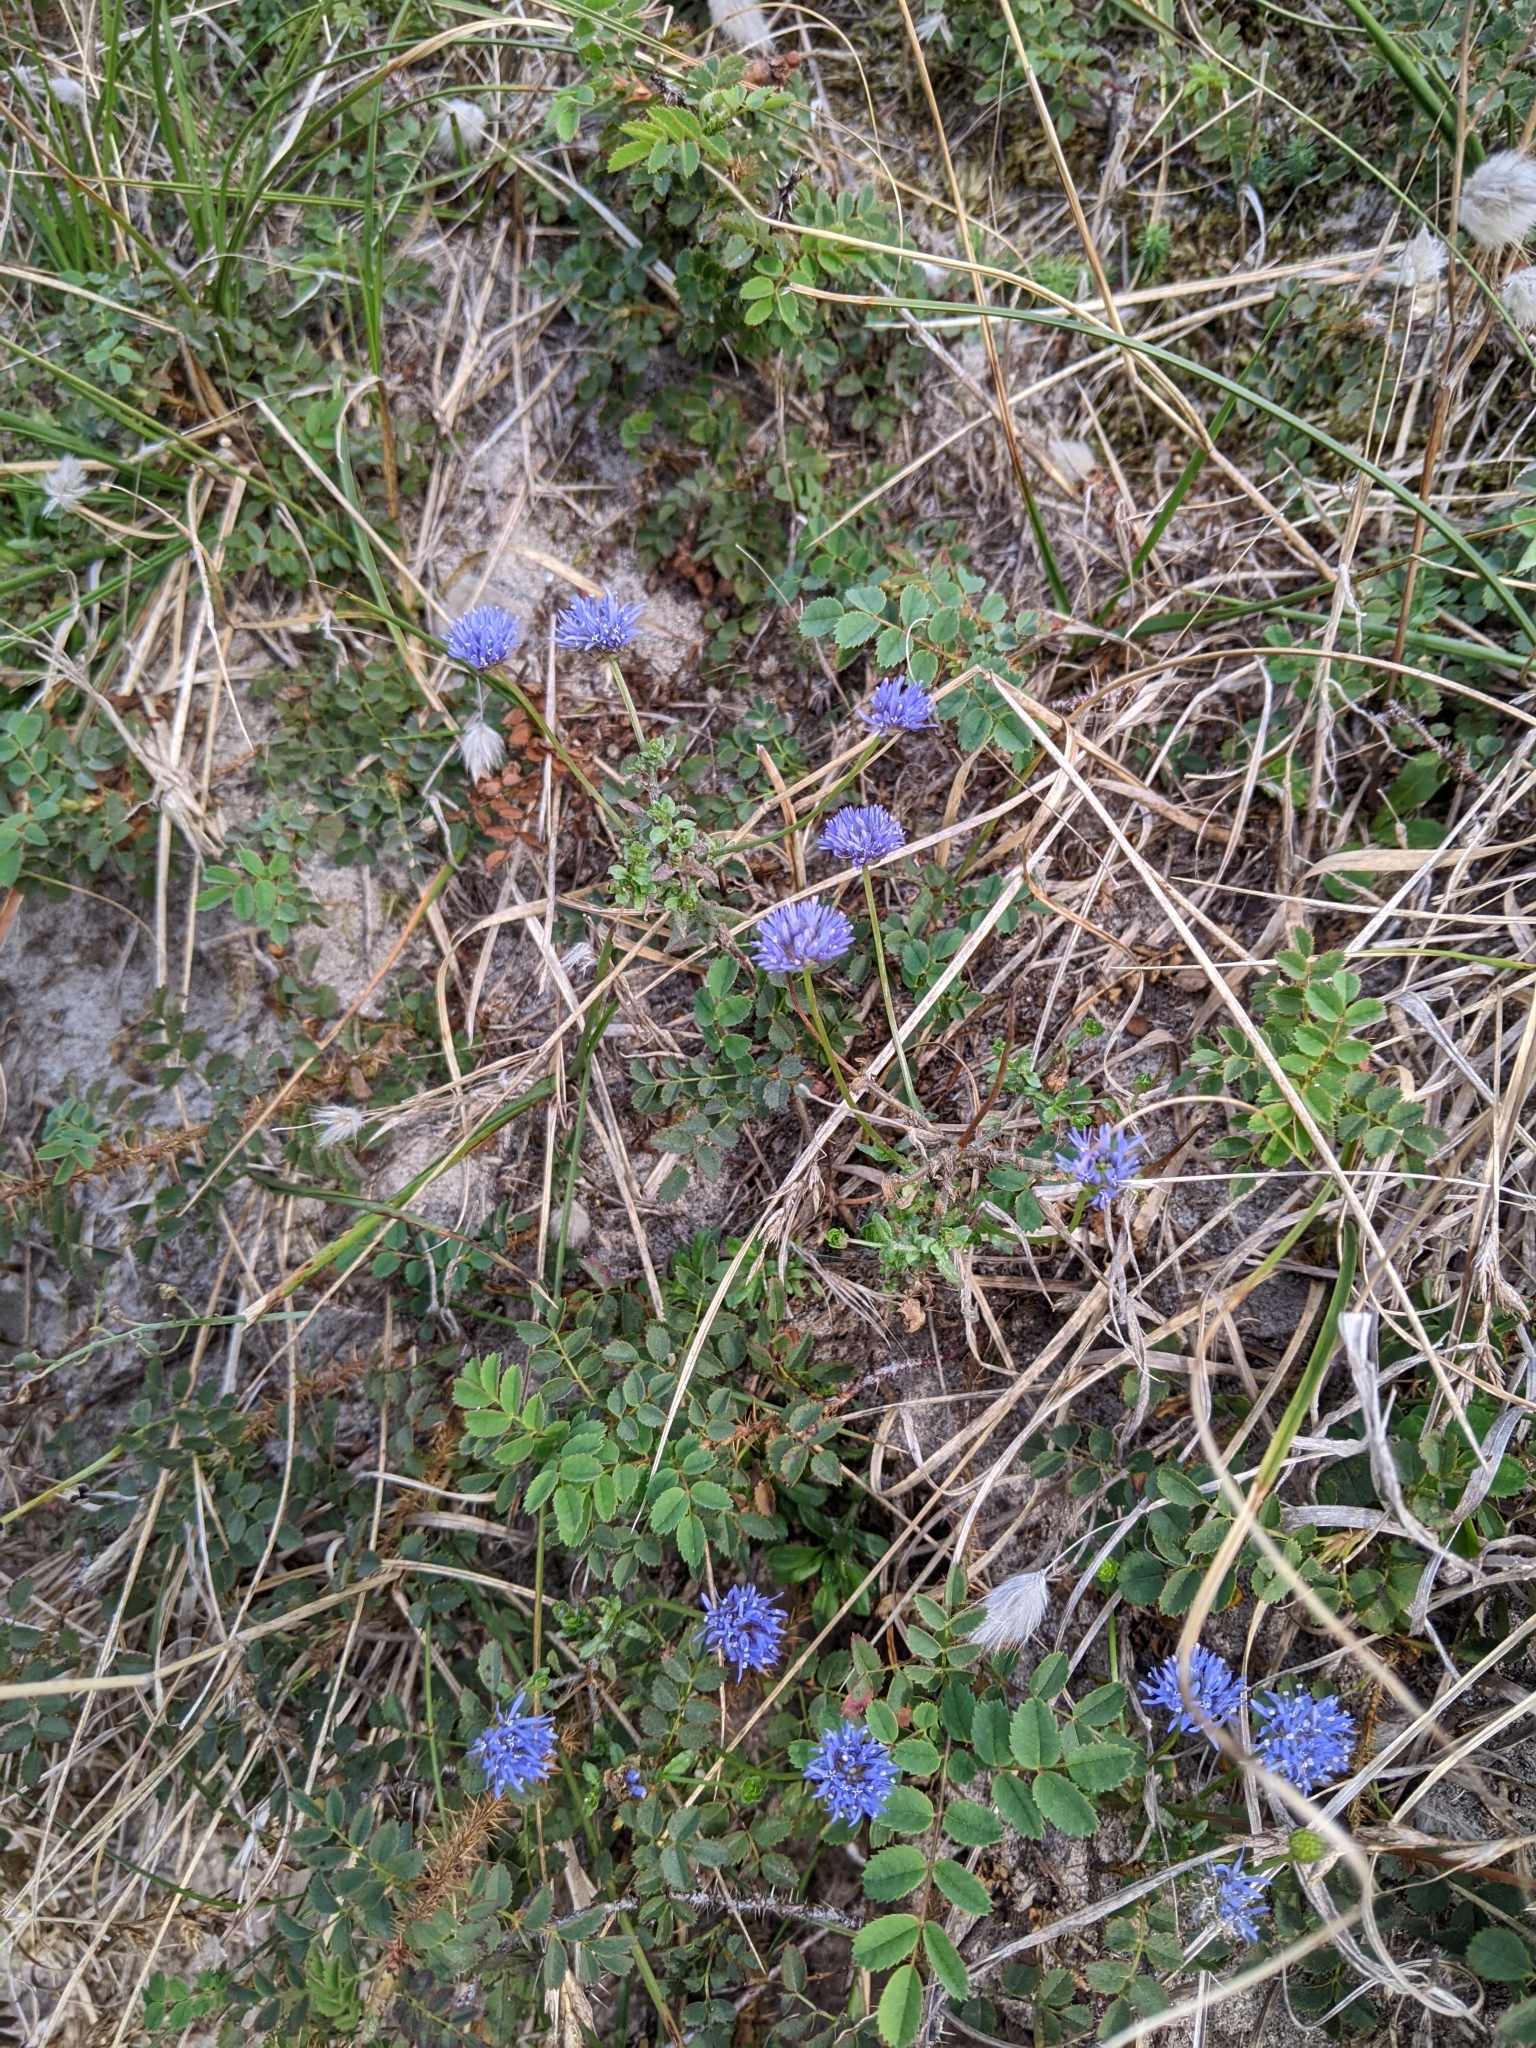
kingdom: Plantae
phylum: Tracheophyta
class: Magnoliopsida
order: Asterales
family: Campanulaceae
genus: Jasione
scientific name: Jasione montana
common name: Sheep's-bit
